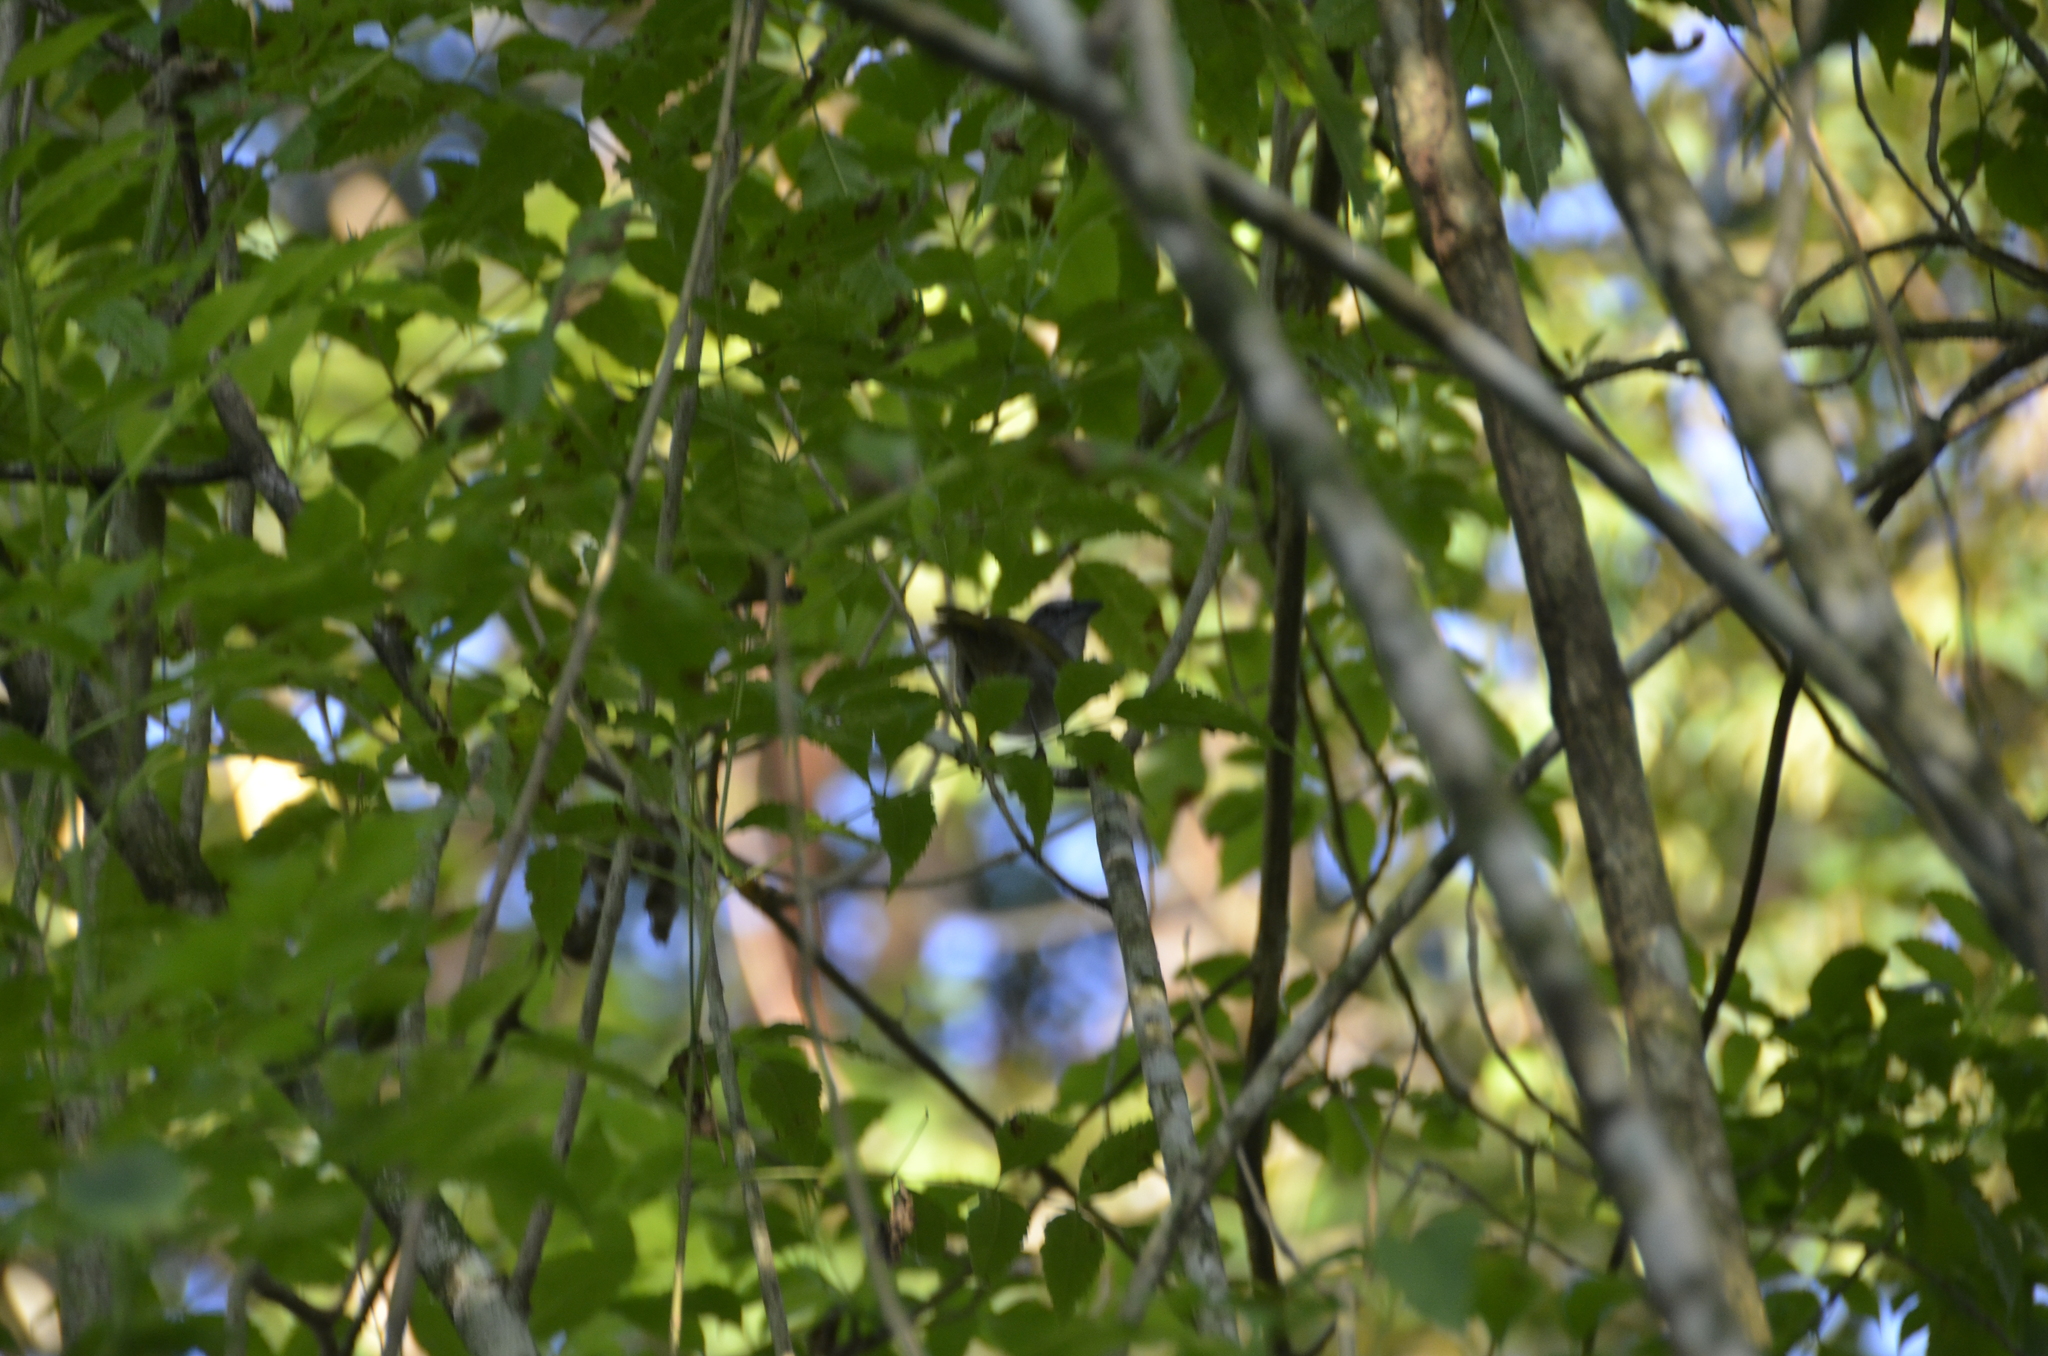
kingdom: Animalia
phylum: Chordata
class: Aves
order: Passeriformes
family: Passerellidae
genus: Arremonops
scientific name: Arremonops conirostris
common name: Black-striped sparrow
